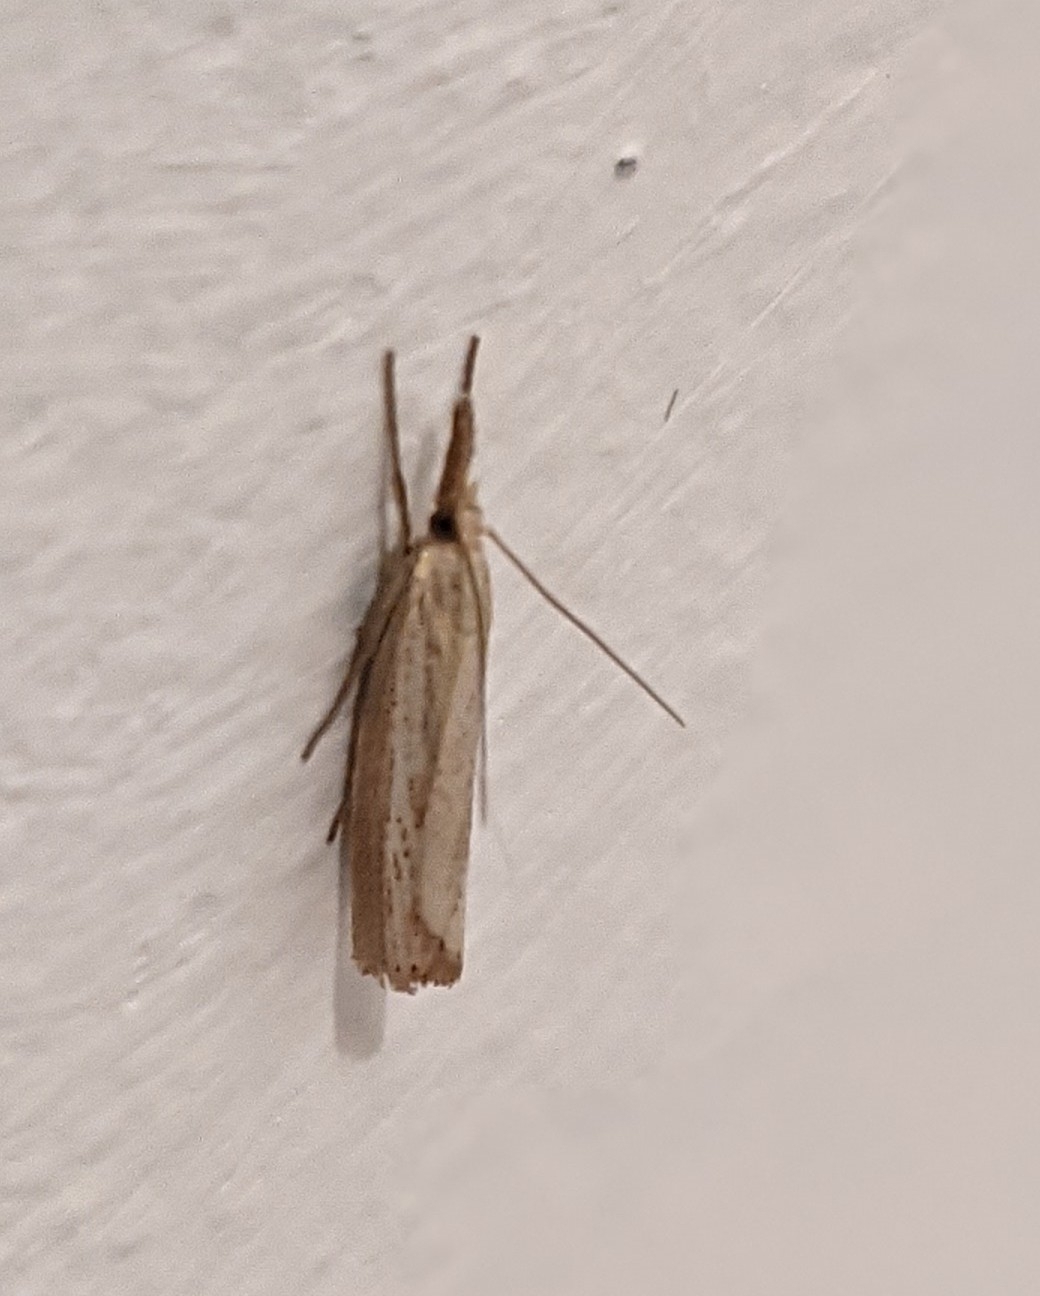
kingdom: Animalia
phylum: Arthropoda
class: Insecta
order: Lepidoptera
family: Crambidae
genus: Agriphila
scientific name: Agriphila straminella
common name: Straw grass-veneer
